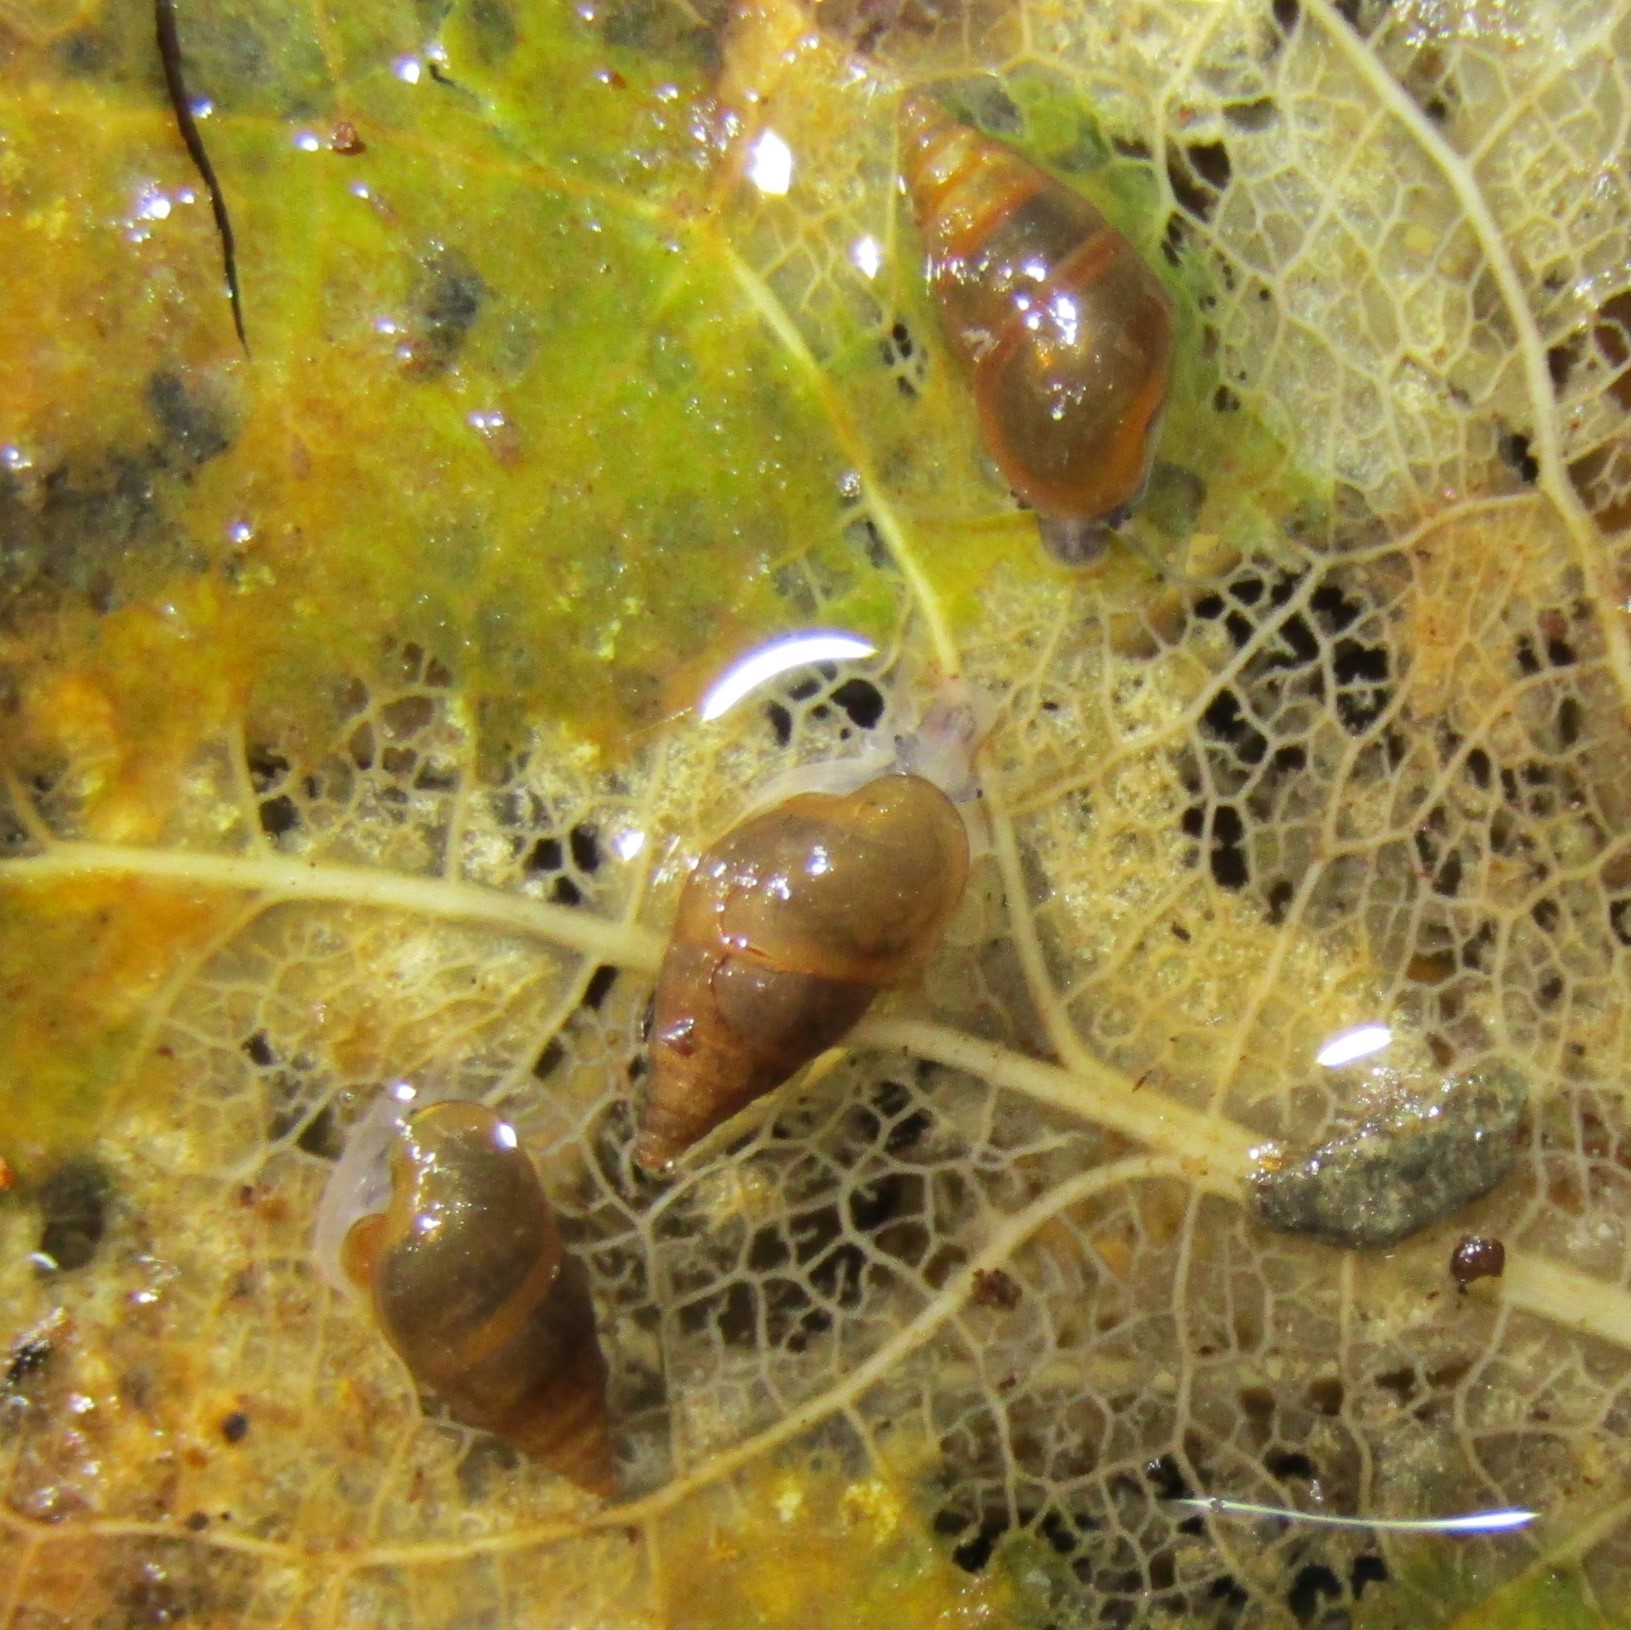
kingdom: Animalia
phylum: Mollusca
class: Gastropoda
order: Littorinimorpha
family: Tateidae
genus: Potamopyrgus
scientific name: Potamopyrgus antipodarum
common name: Jenkins' spire snail
